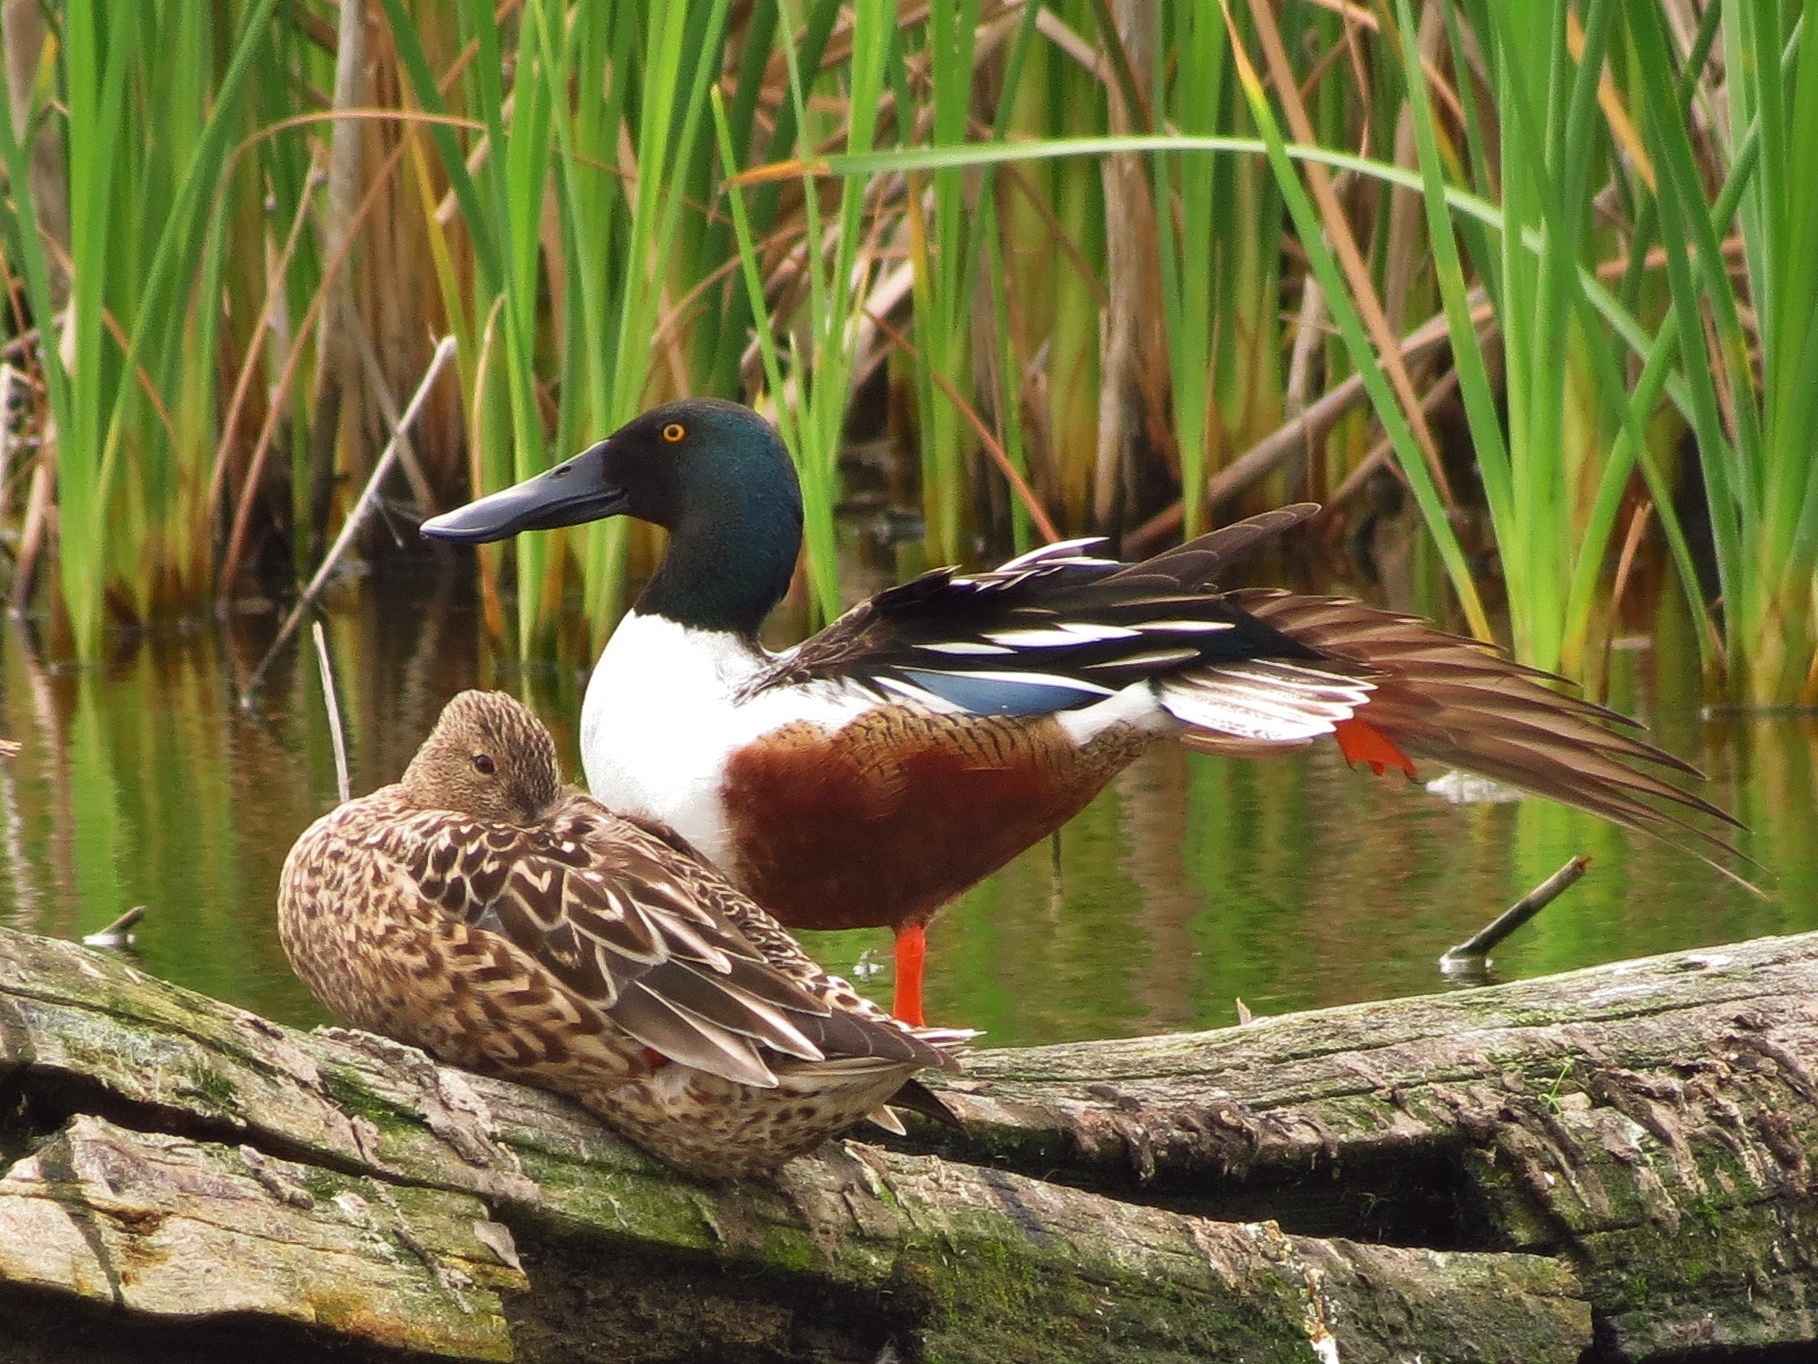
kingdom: Animalia
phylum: Chordata
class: Aves
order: Anseriformes
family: Anatidae
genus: Spatula
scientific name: Spatula clypeata
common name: Northern shoveler
